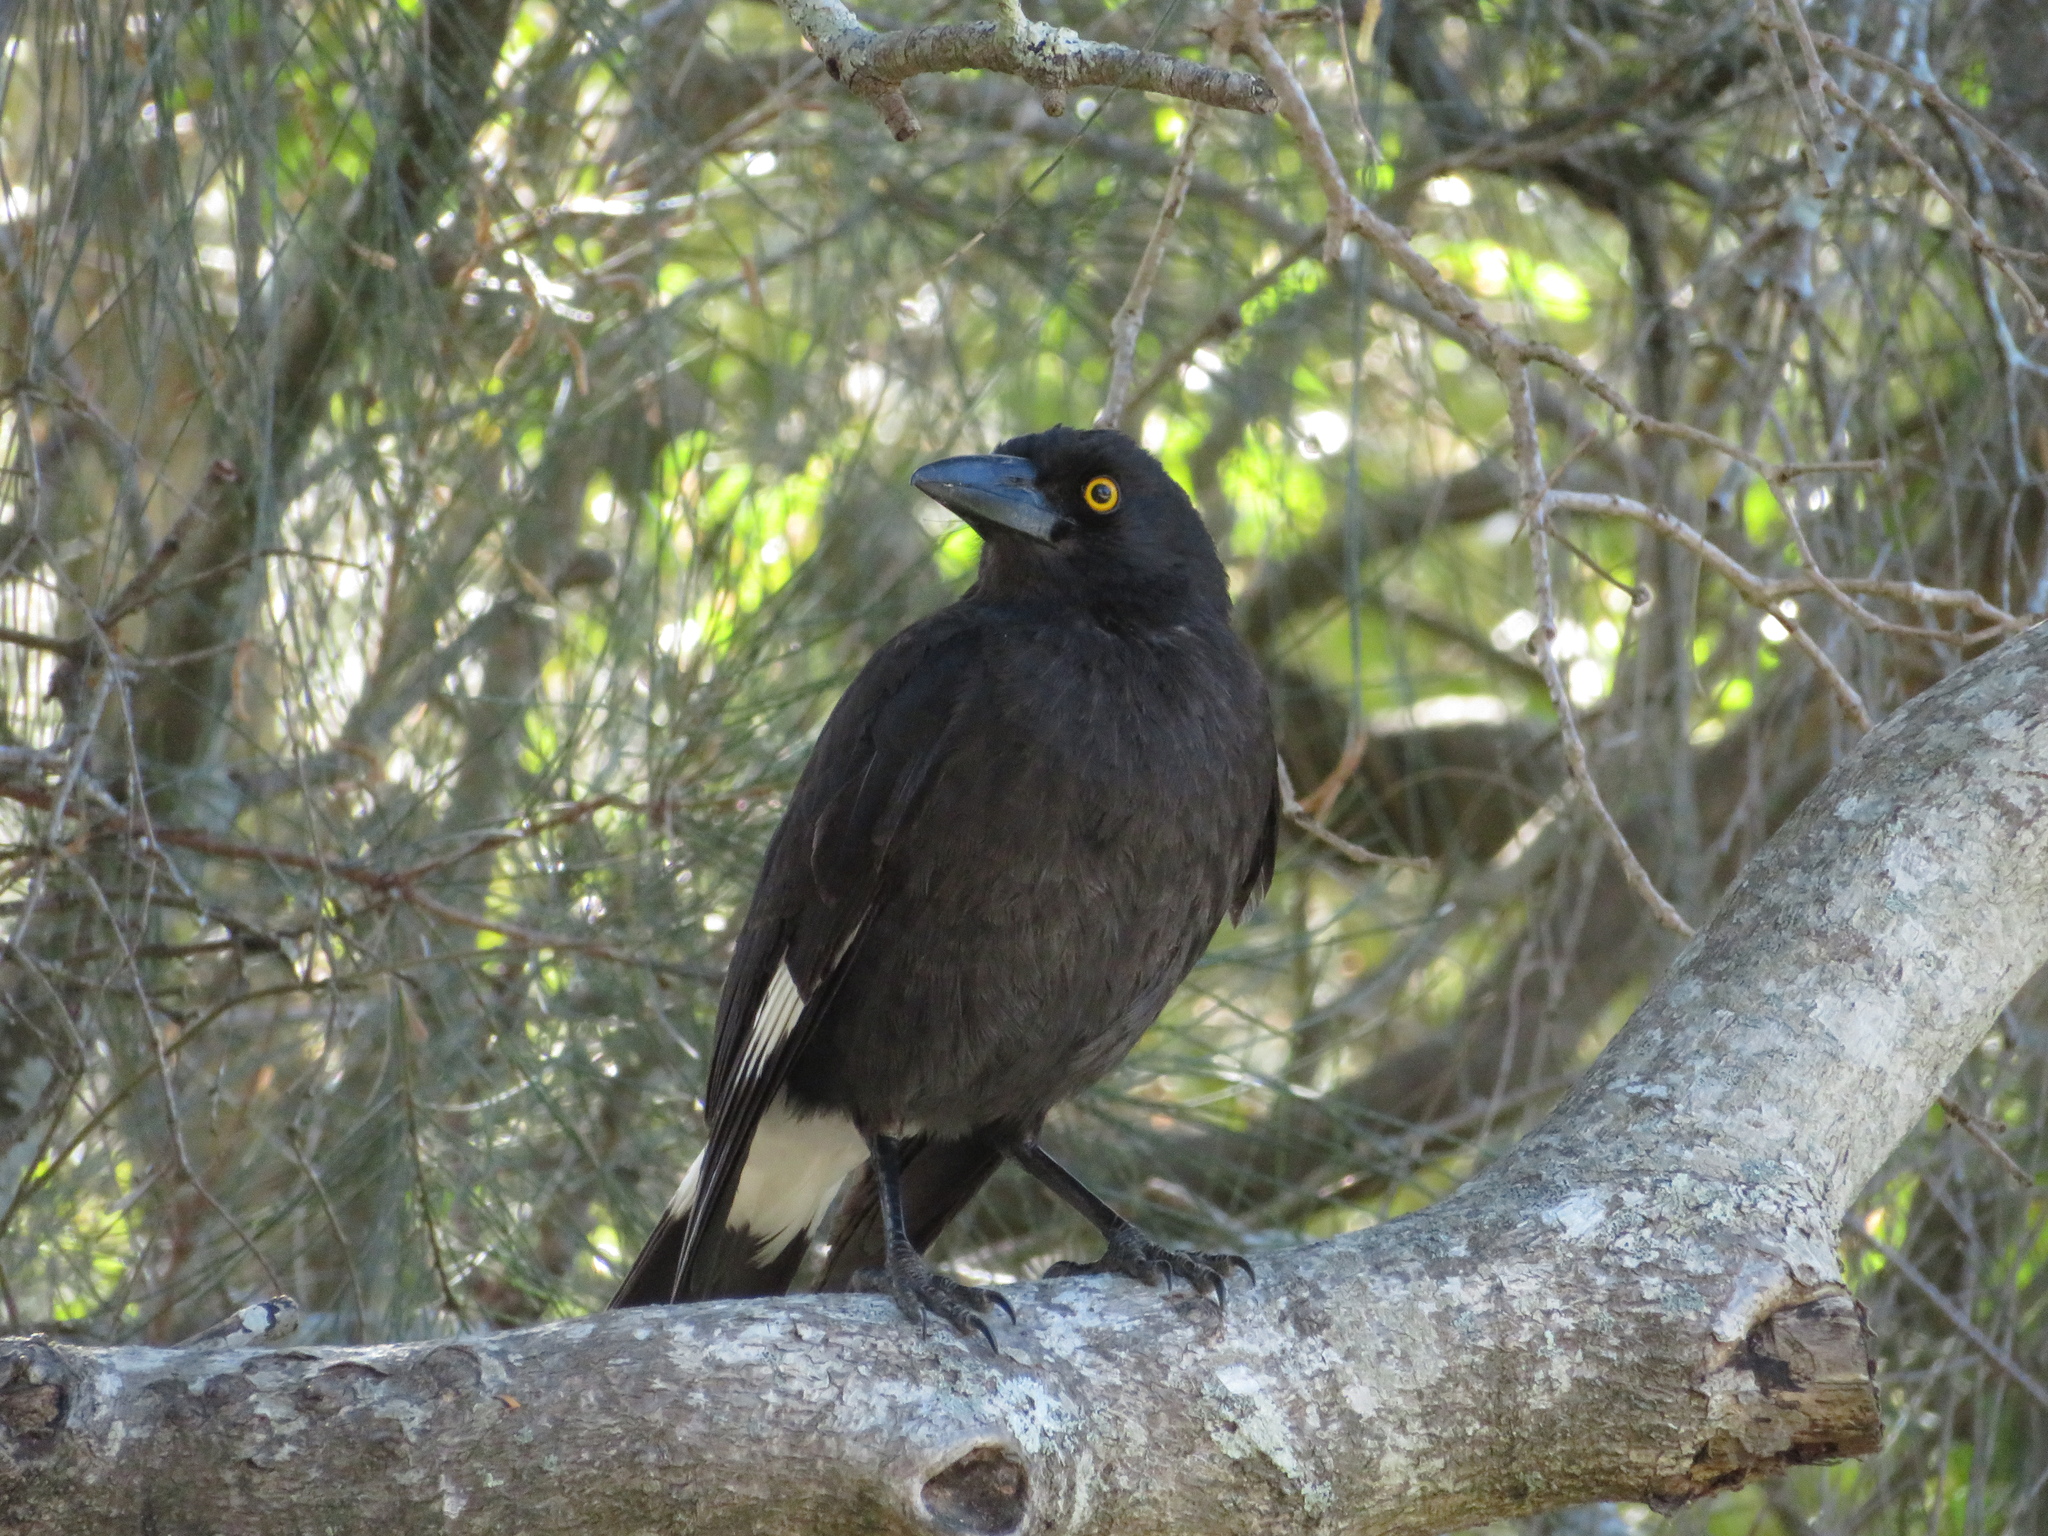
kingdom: Animalia
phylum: Chordata
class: Aves
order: Passeriformes
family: Cracticidae
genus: Strepera
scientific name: Strepera graculina
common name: Pied currawong
